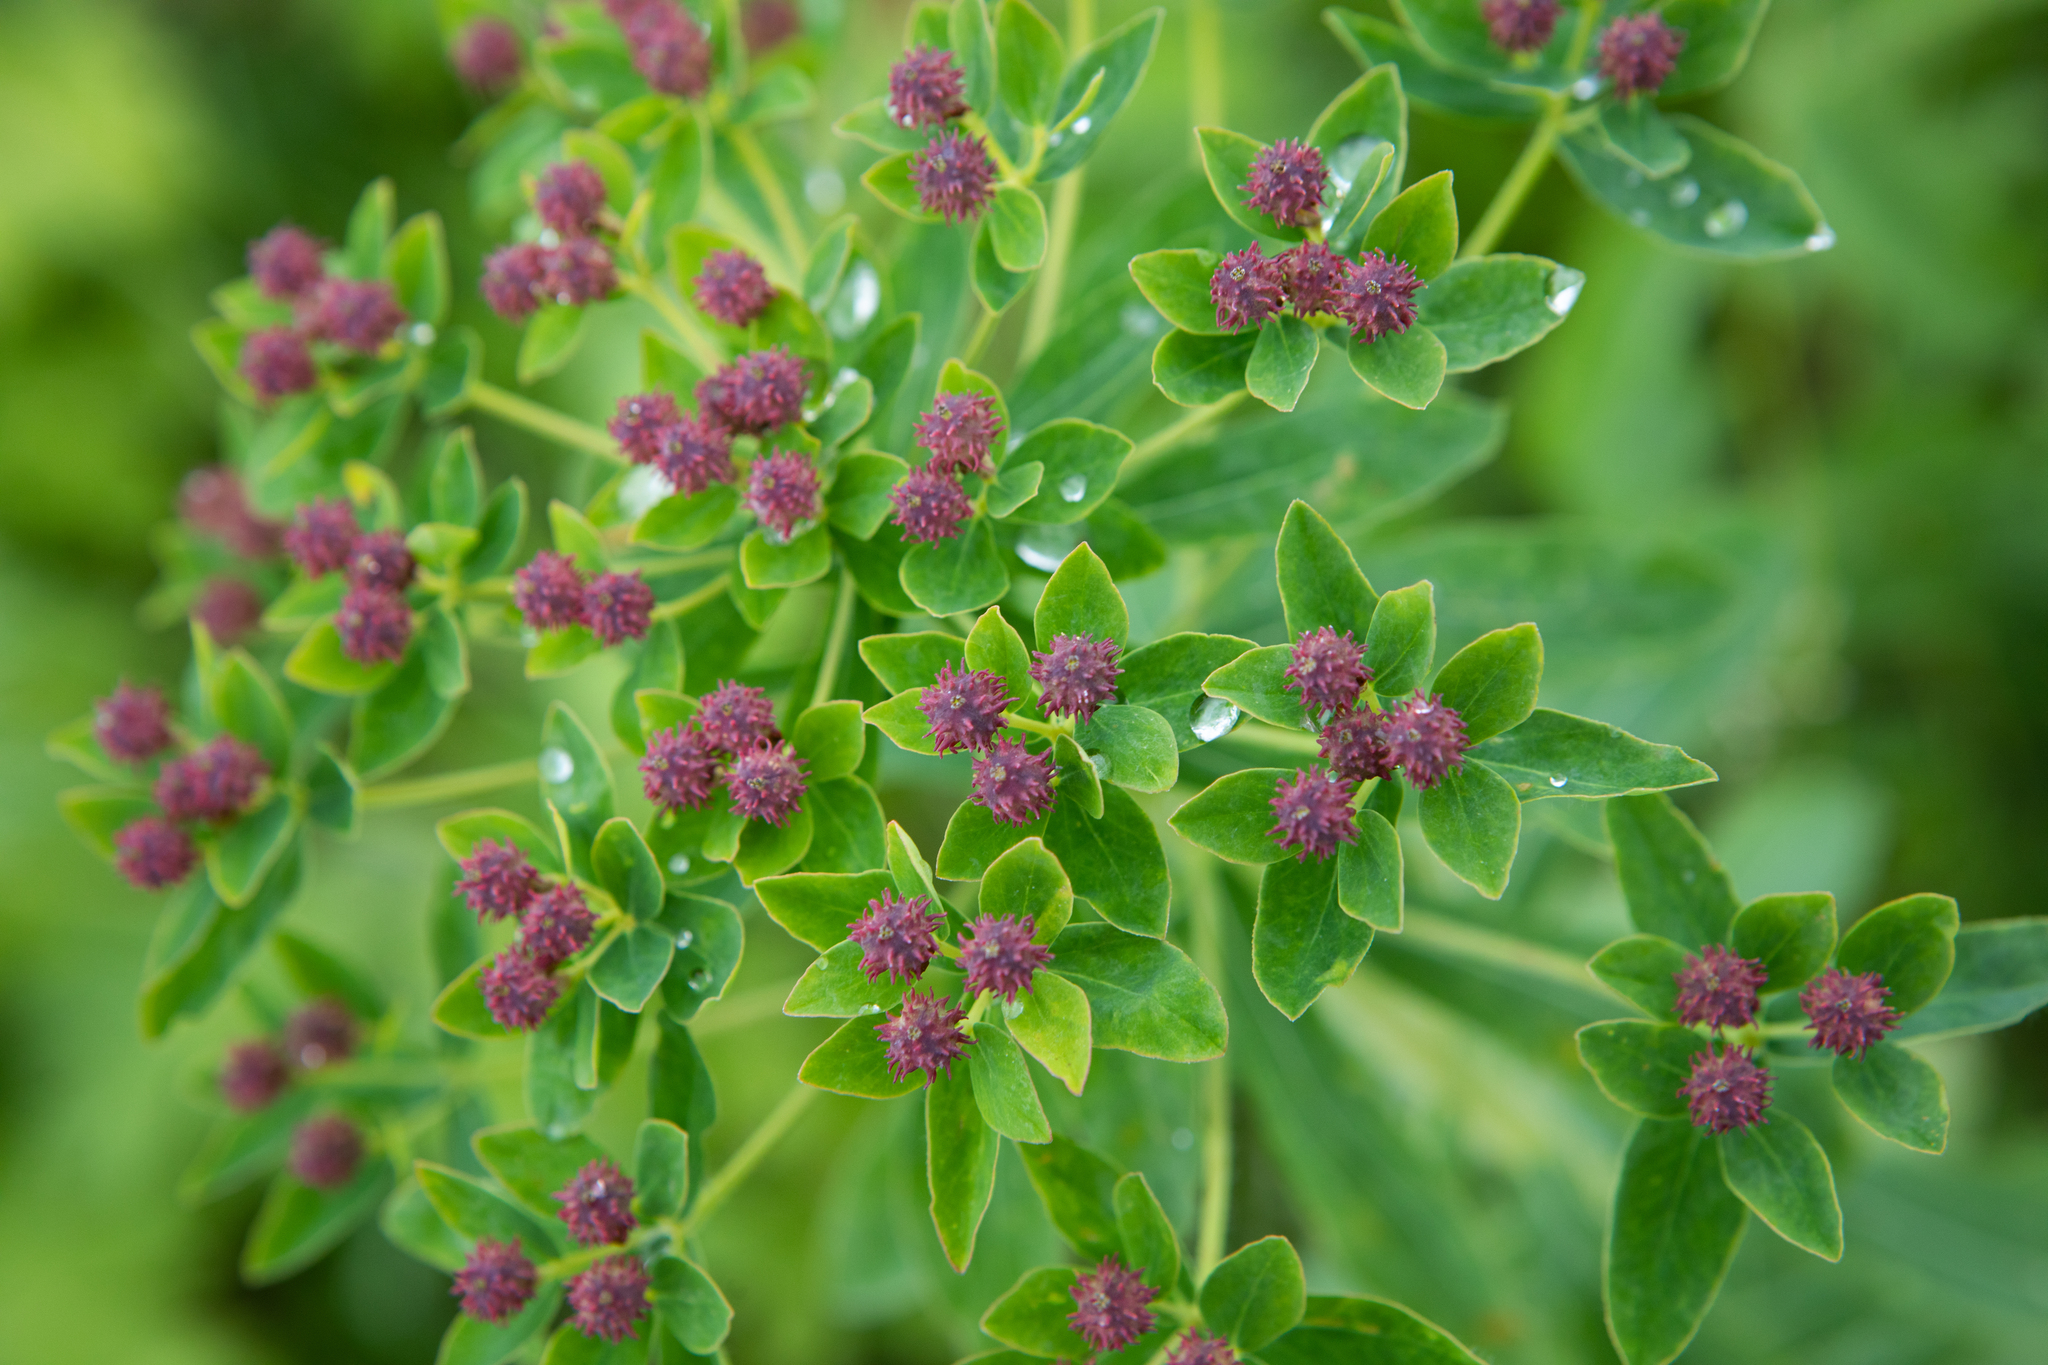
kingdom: Plantae
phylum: Tracheophyta
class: Magnoliopsida
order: Malpighiales
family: Euphorbiaceae
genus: Euphorbia
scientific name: Euphorbia pilosa
